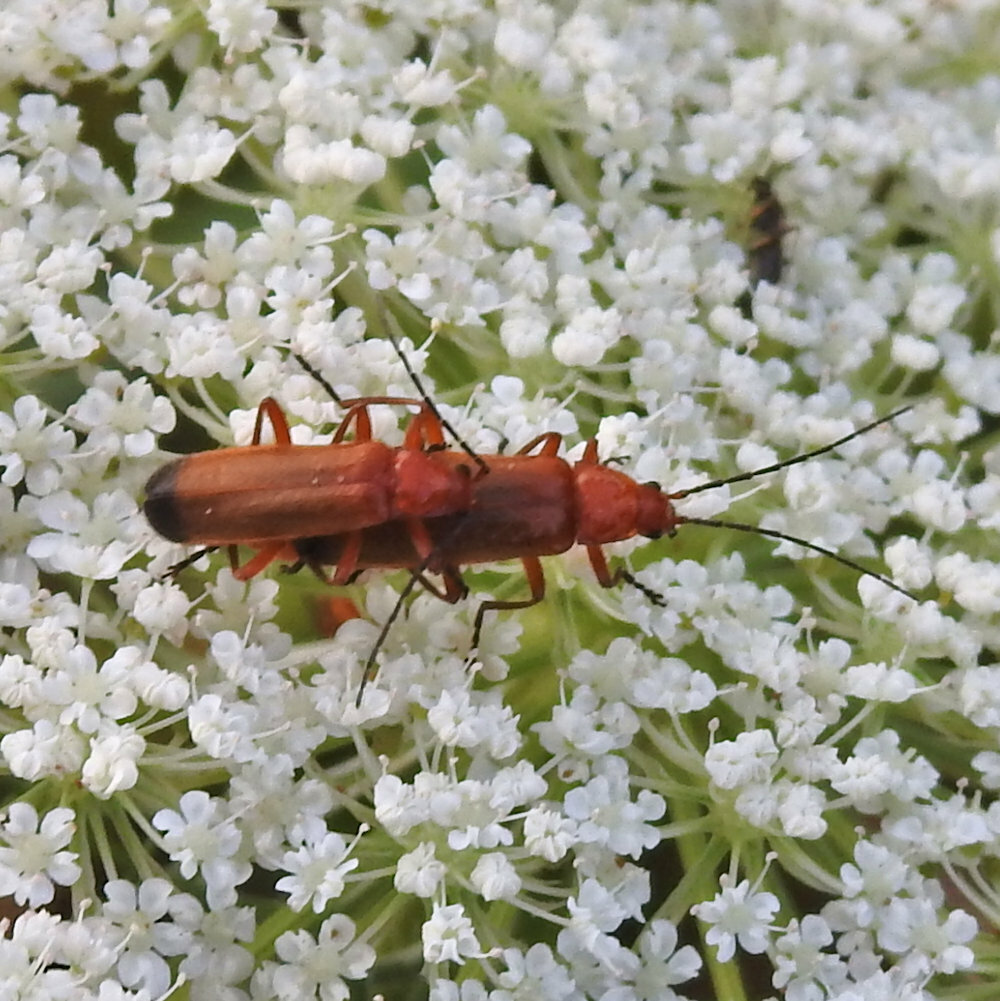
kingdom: Animalia
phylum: Arthropoda
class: Insecta
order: Coleoptera
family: Cantharidae
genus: Rhagonycha
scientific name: Rhagonycha fulva
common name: Common red soldier beetle
